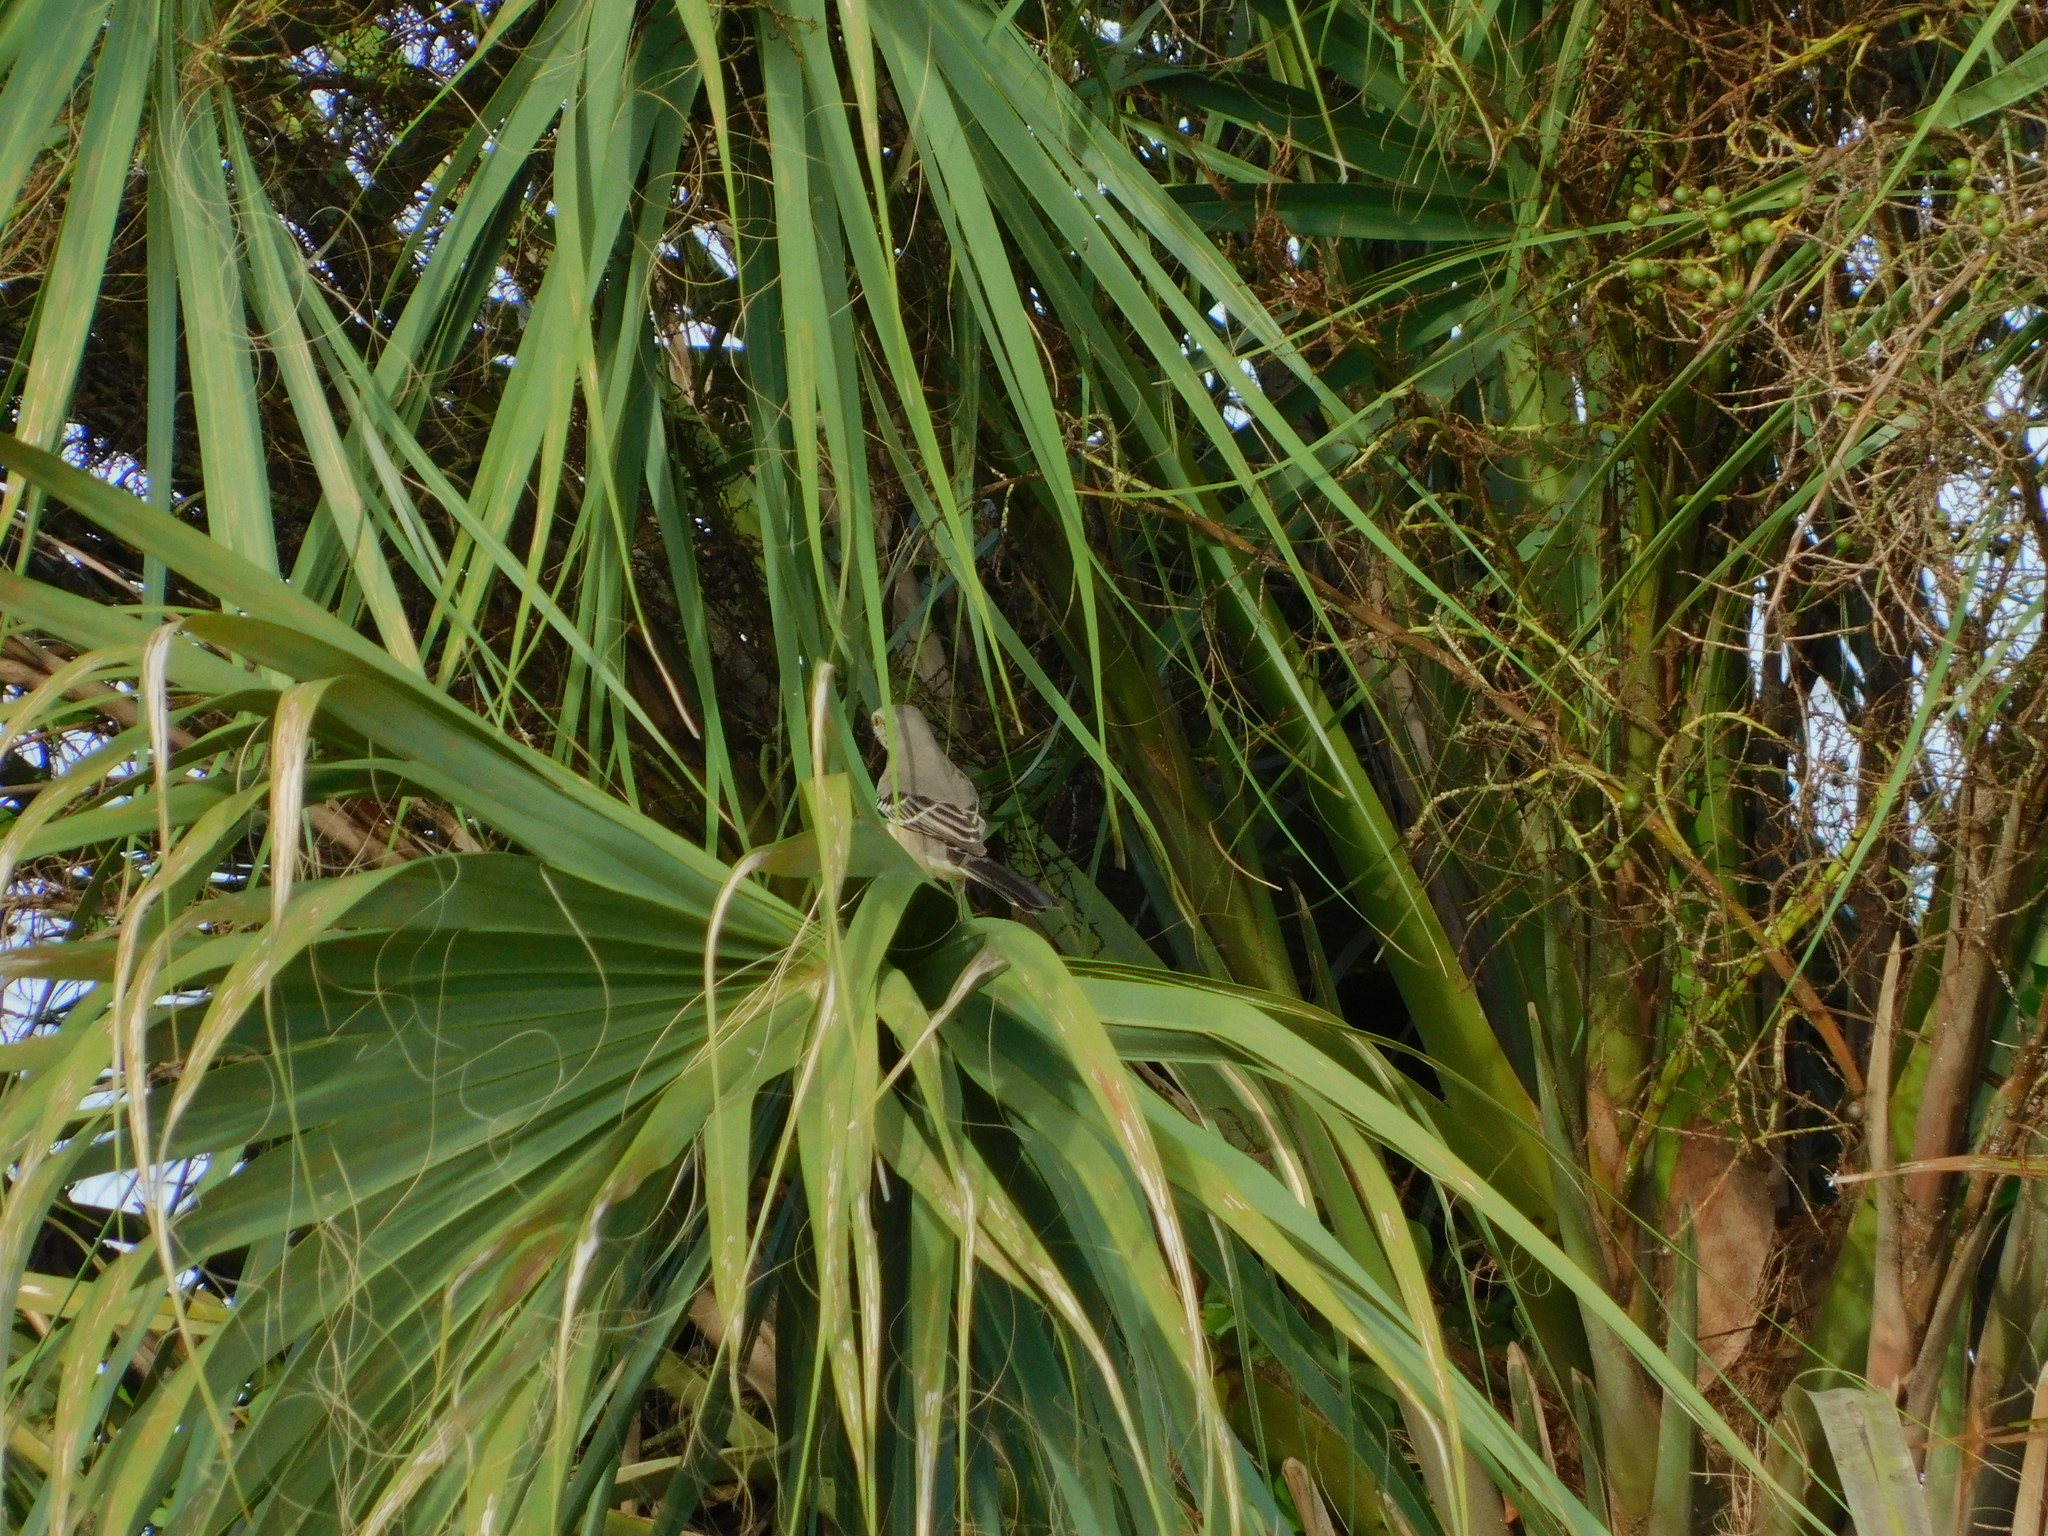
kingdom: Animalia
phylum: Chordata
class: Aves
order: Passeriformes
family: Mimidae
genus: Mimus
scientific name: Mimus polyglottos
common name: Northern mockingbird
